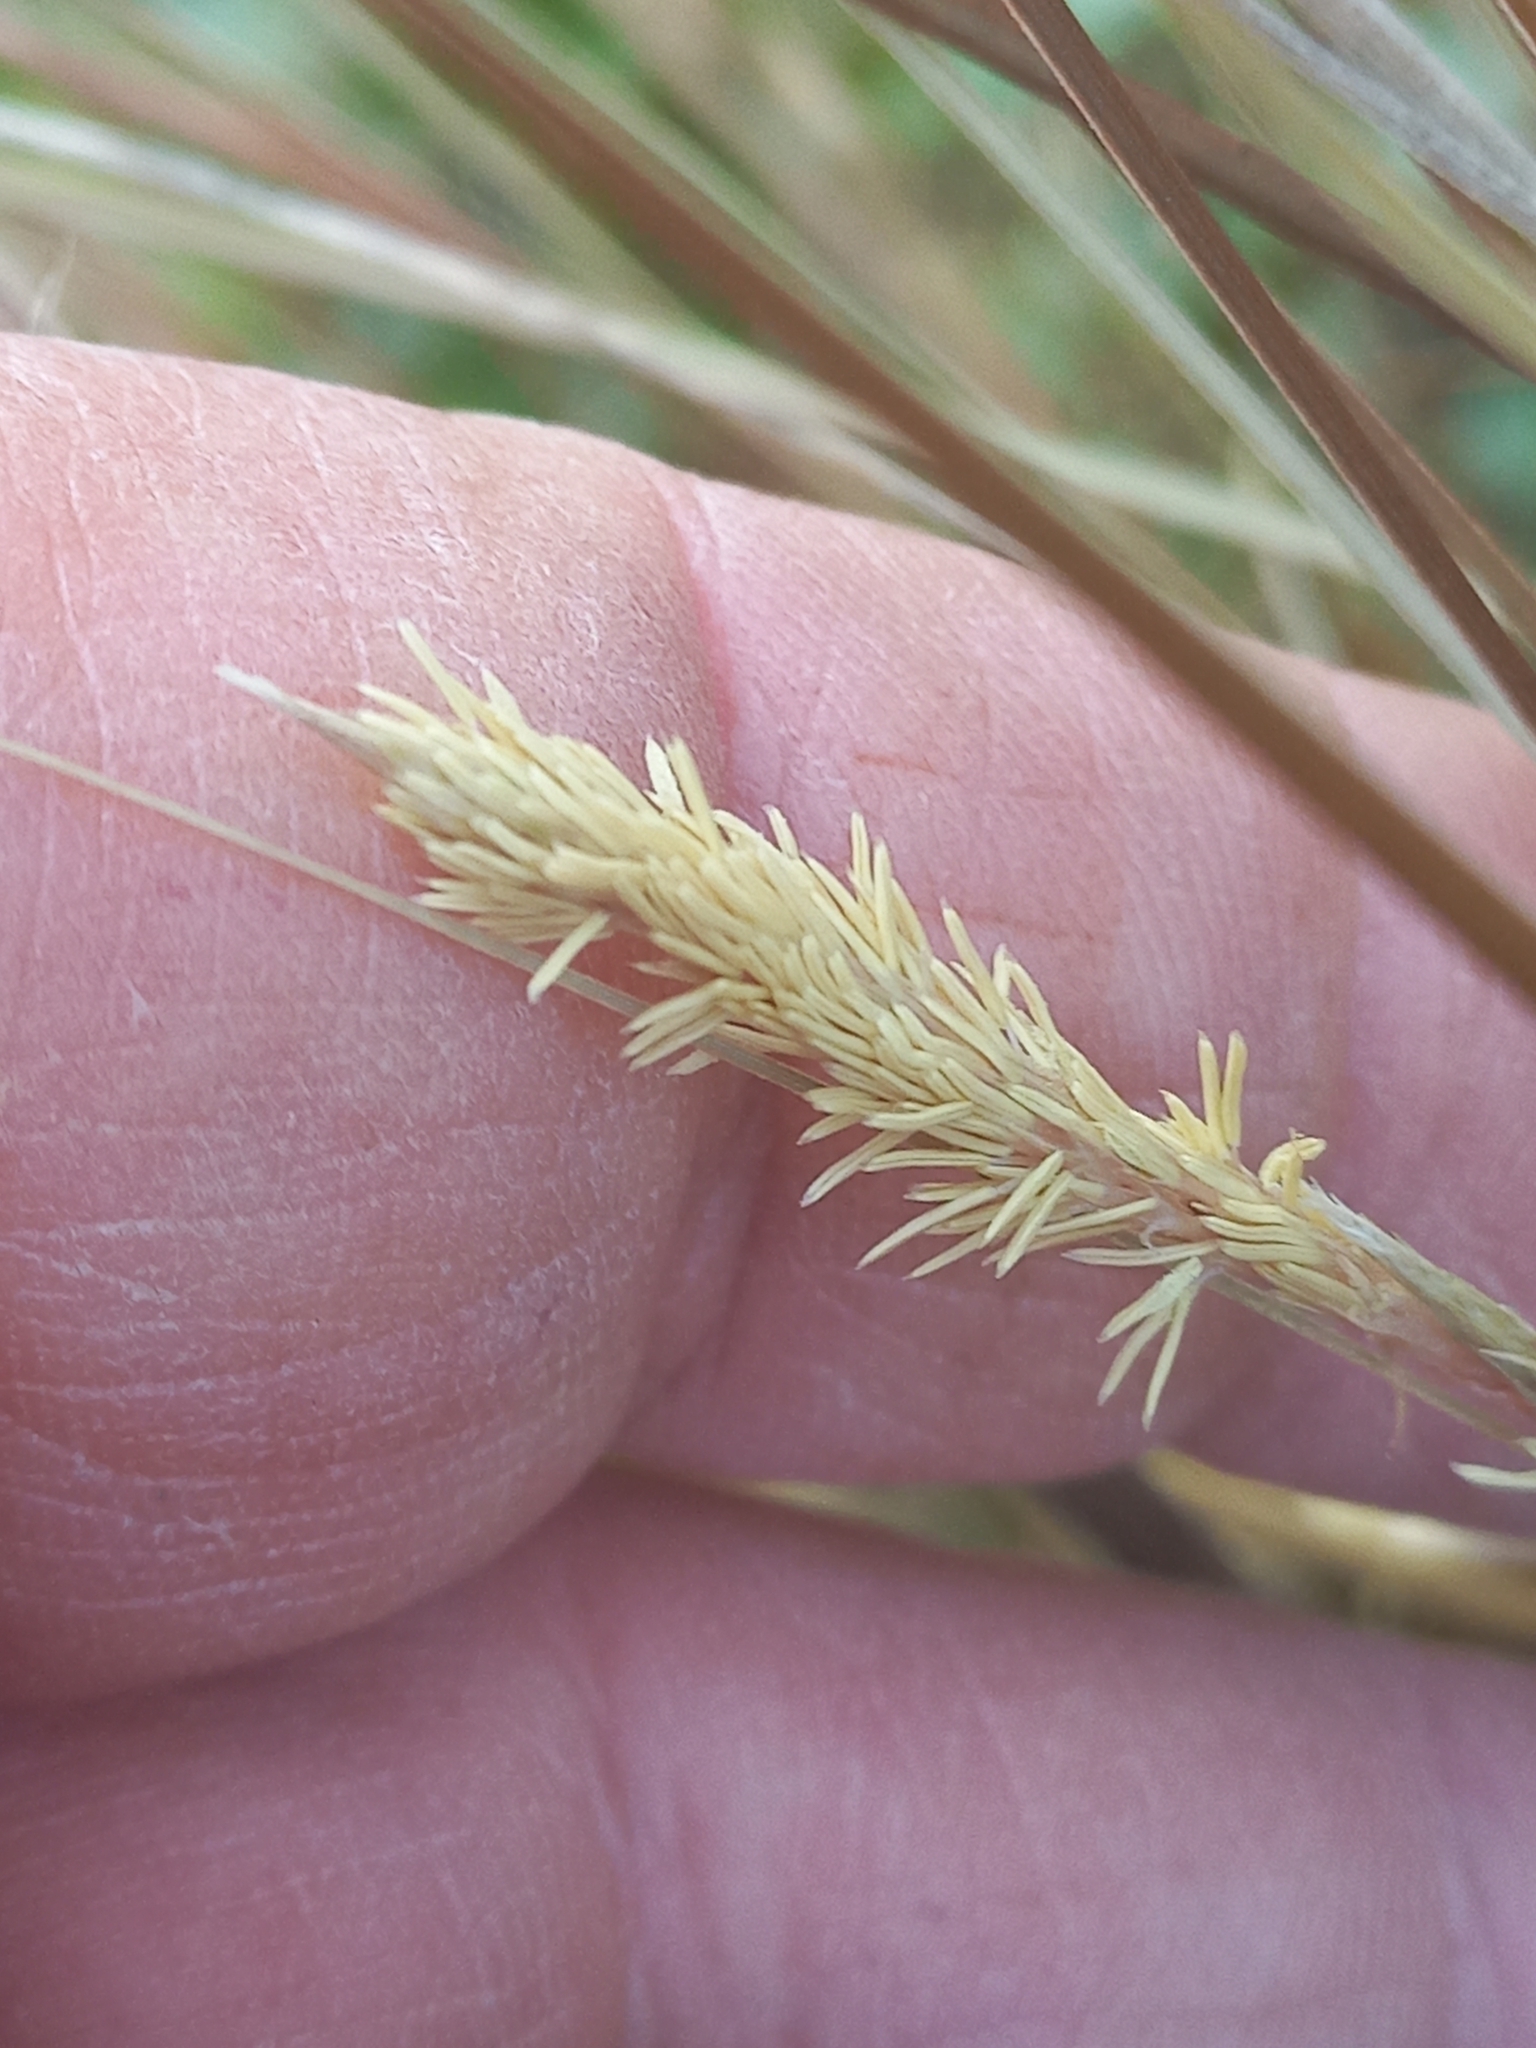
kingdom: Plantae
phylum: Tracheophyta
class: Liliopsida
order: Poales
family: Cyperaceae
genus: Carex
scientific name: Carex buchananii
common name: Leatherleaf sedge
